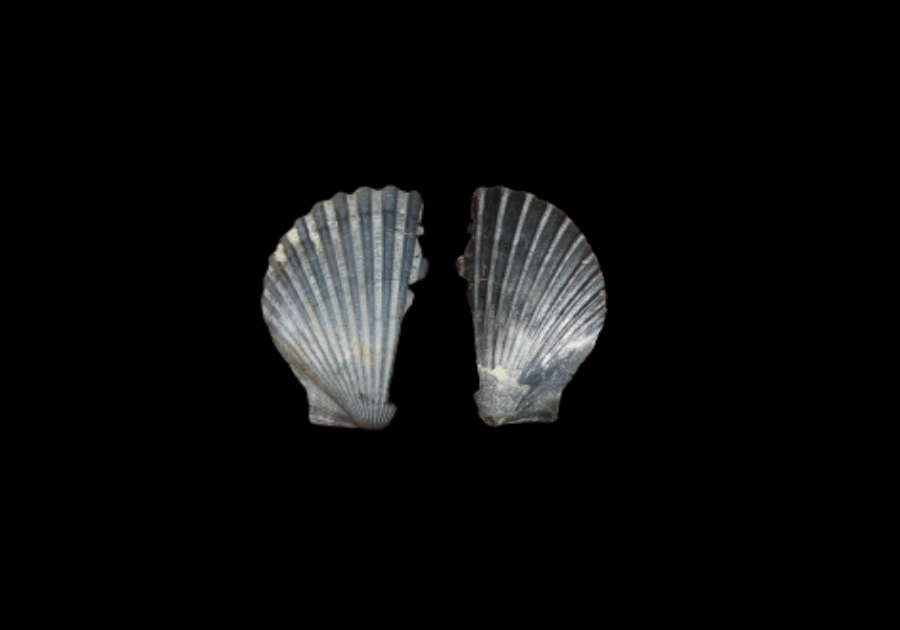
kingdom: Animalia
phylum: Mollusca
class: Bivalvia
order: Pectinida
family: Pectinidae
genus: Argopecten
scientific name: Argopecten irradians
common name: Atlantic bay scallop
